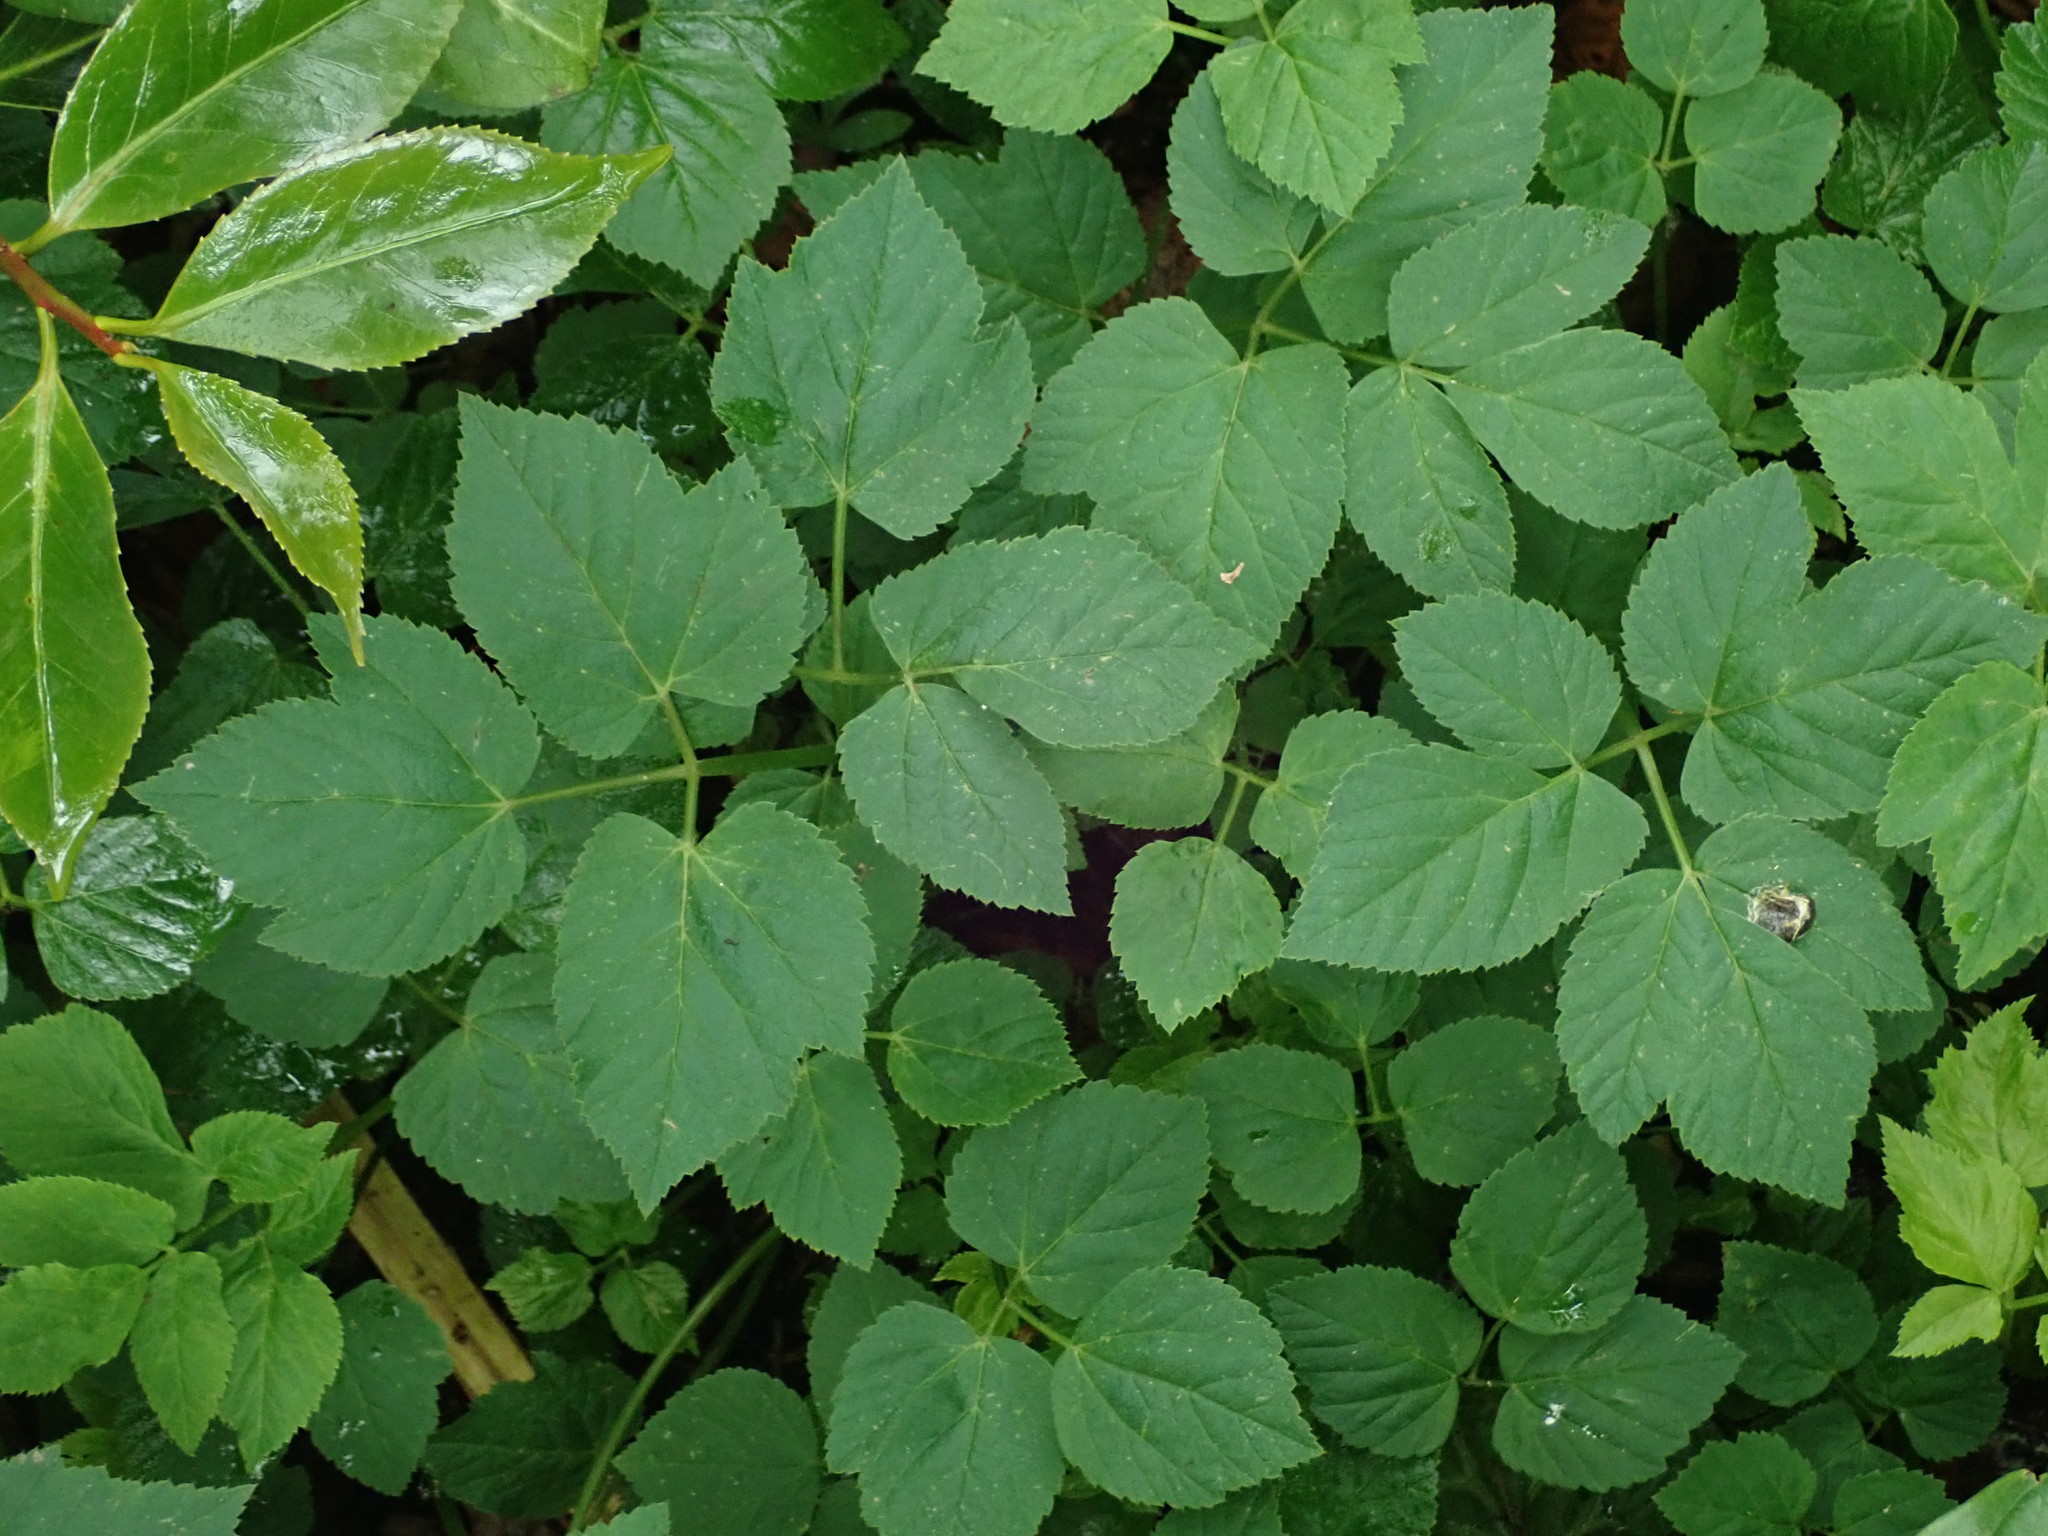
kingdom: Plantae
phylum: Tracheophyta
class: Magnoliopsida
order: Apiales
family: Apiaceae
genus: Aegopodium
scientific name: Aegopodium podagraria
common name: Ground-elder
